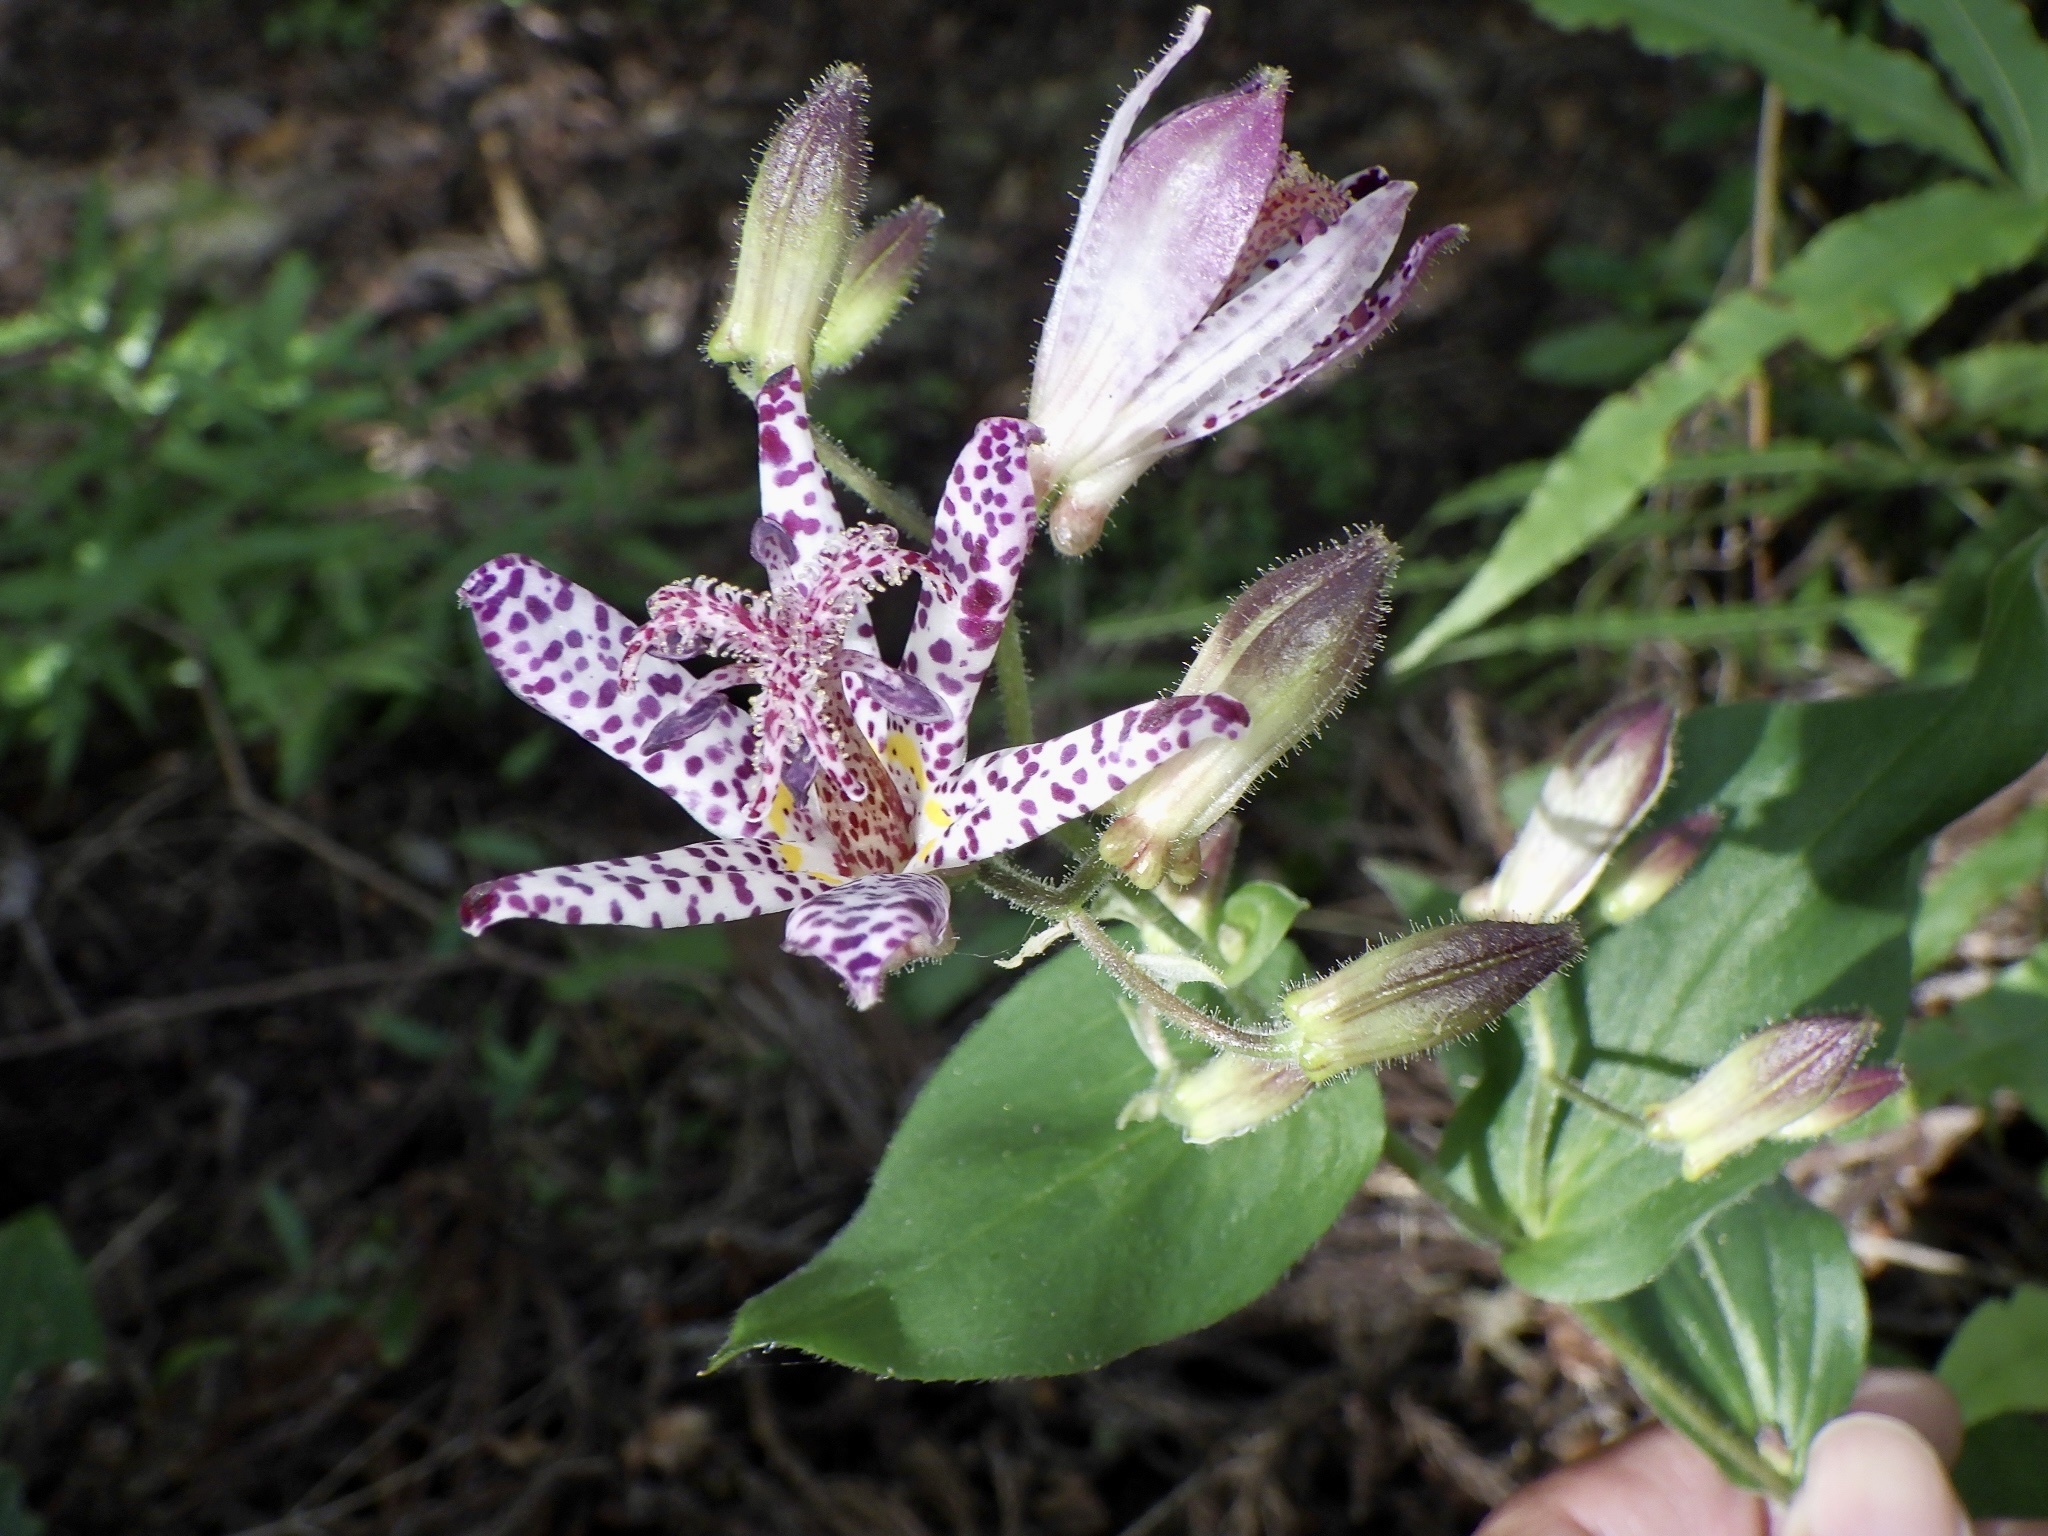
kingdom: Plantae
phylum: Tracheophyta
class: Liliopsida
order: Liliales
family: Liliaceae
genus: Tricyrtis
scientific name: Tricyrtis hirta
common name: Toadlily
